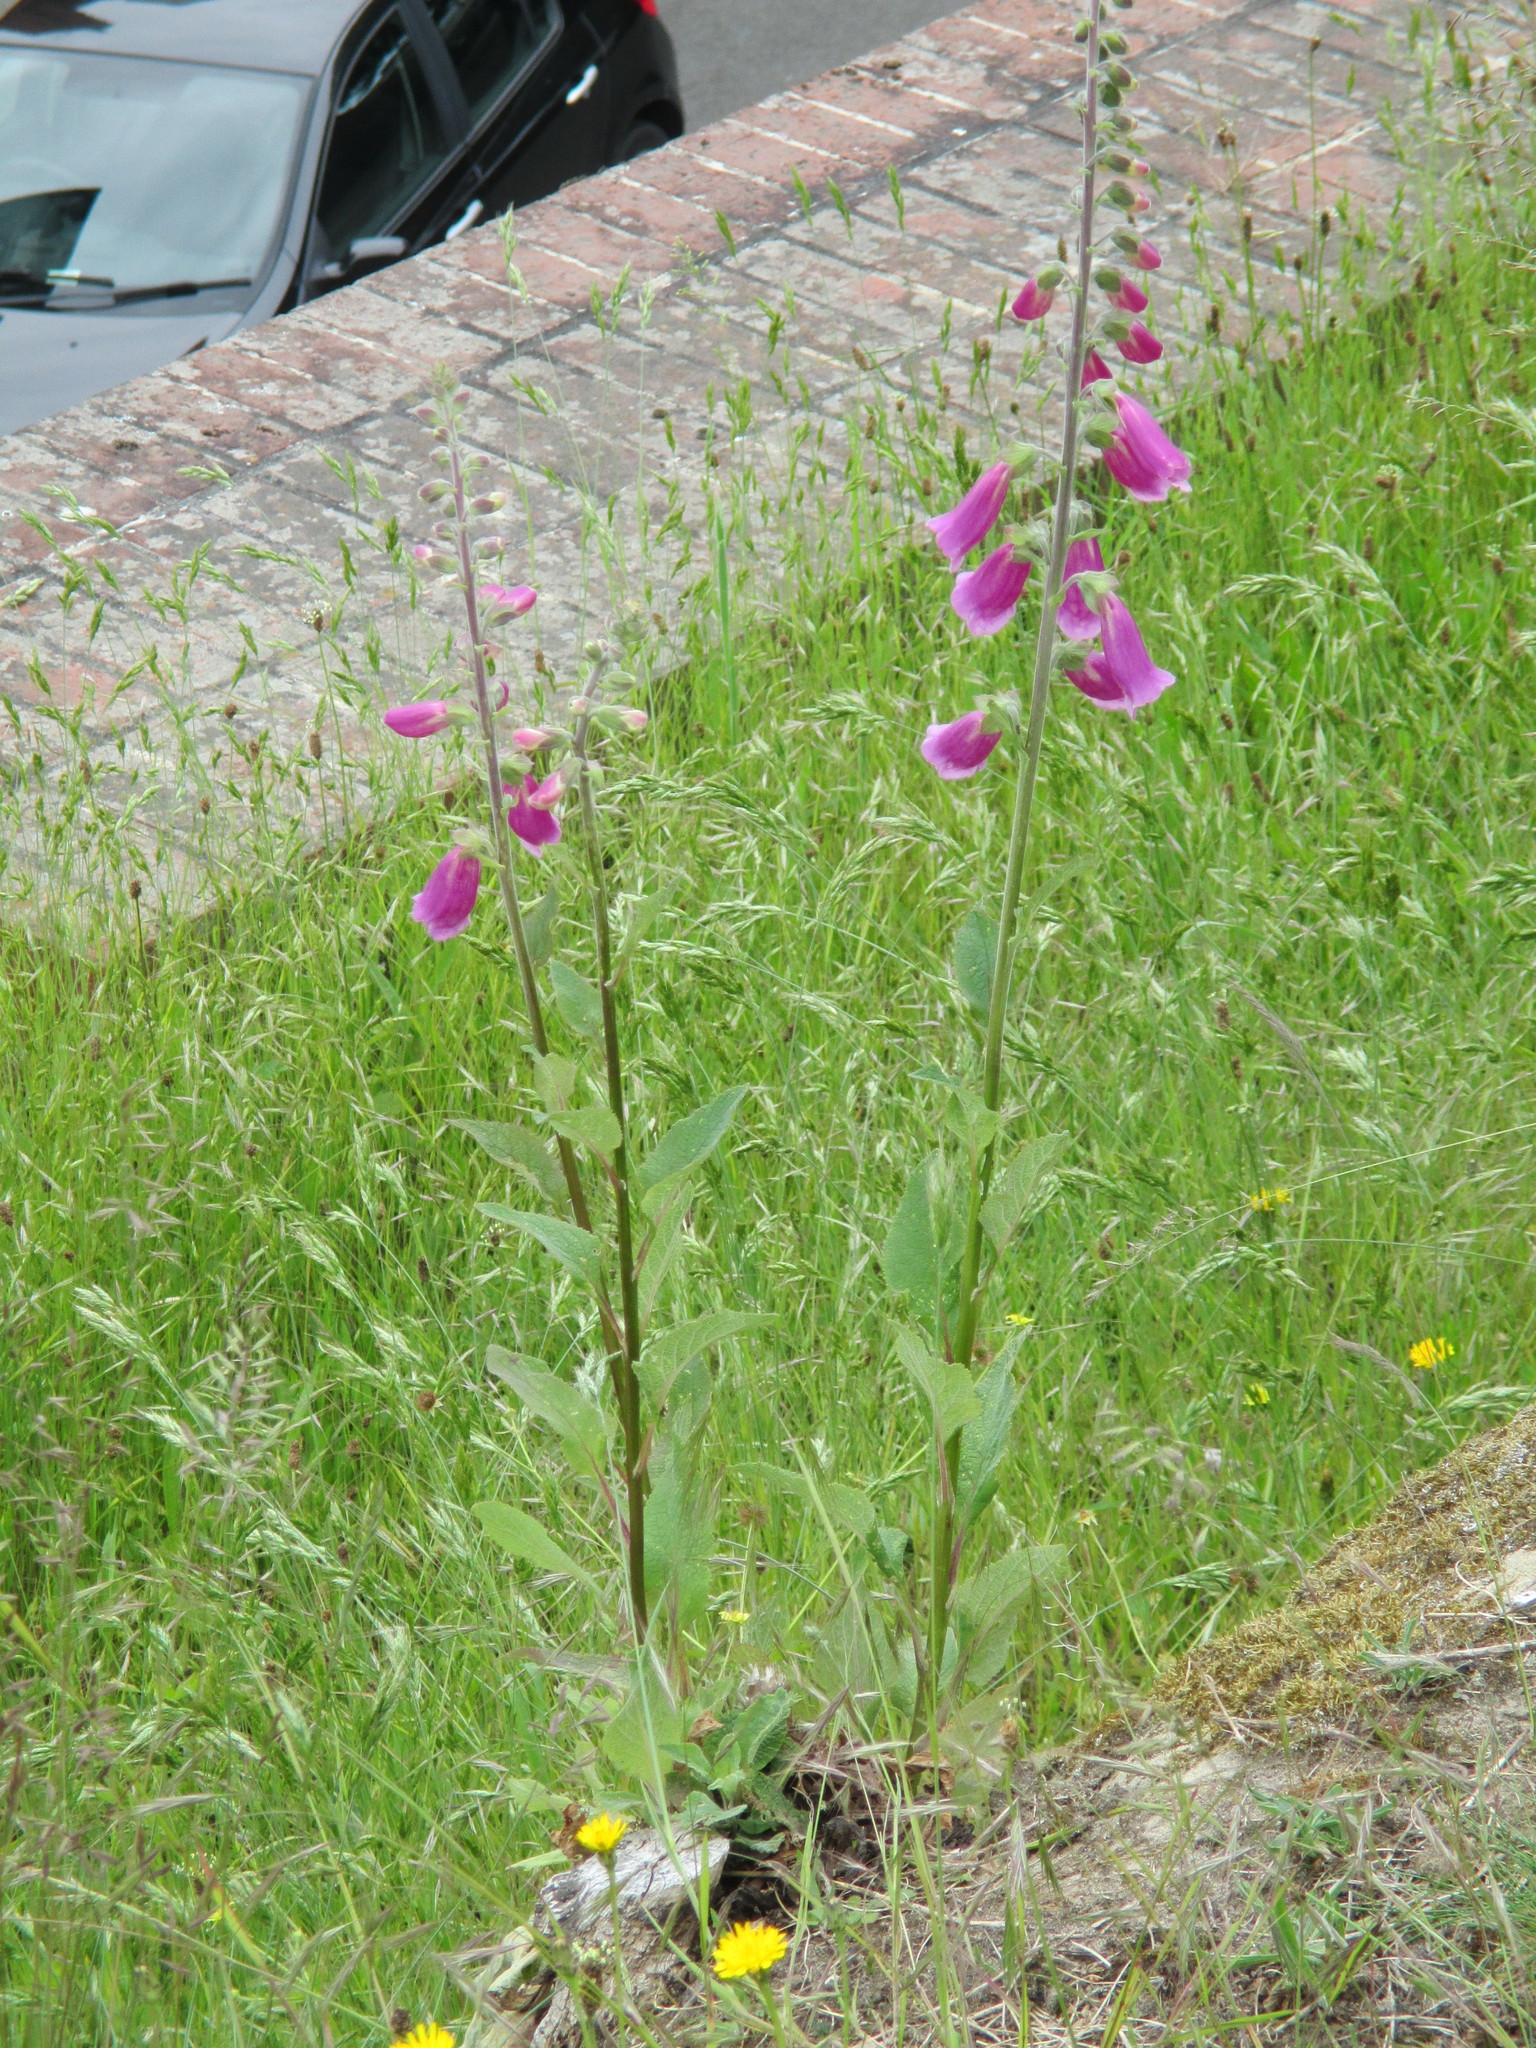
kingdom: Plantae
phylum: Tracheophyta
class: Magnoliopsida
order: Lamiales
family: Plantaginaceae
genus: Digitalis
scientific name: Digitalis purpurea
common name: Foxglove
